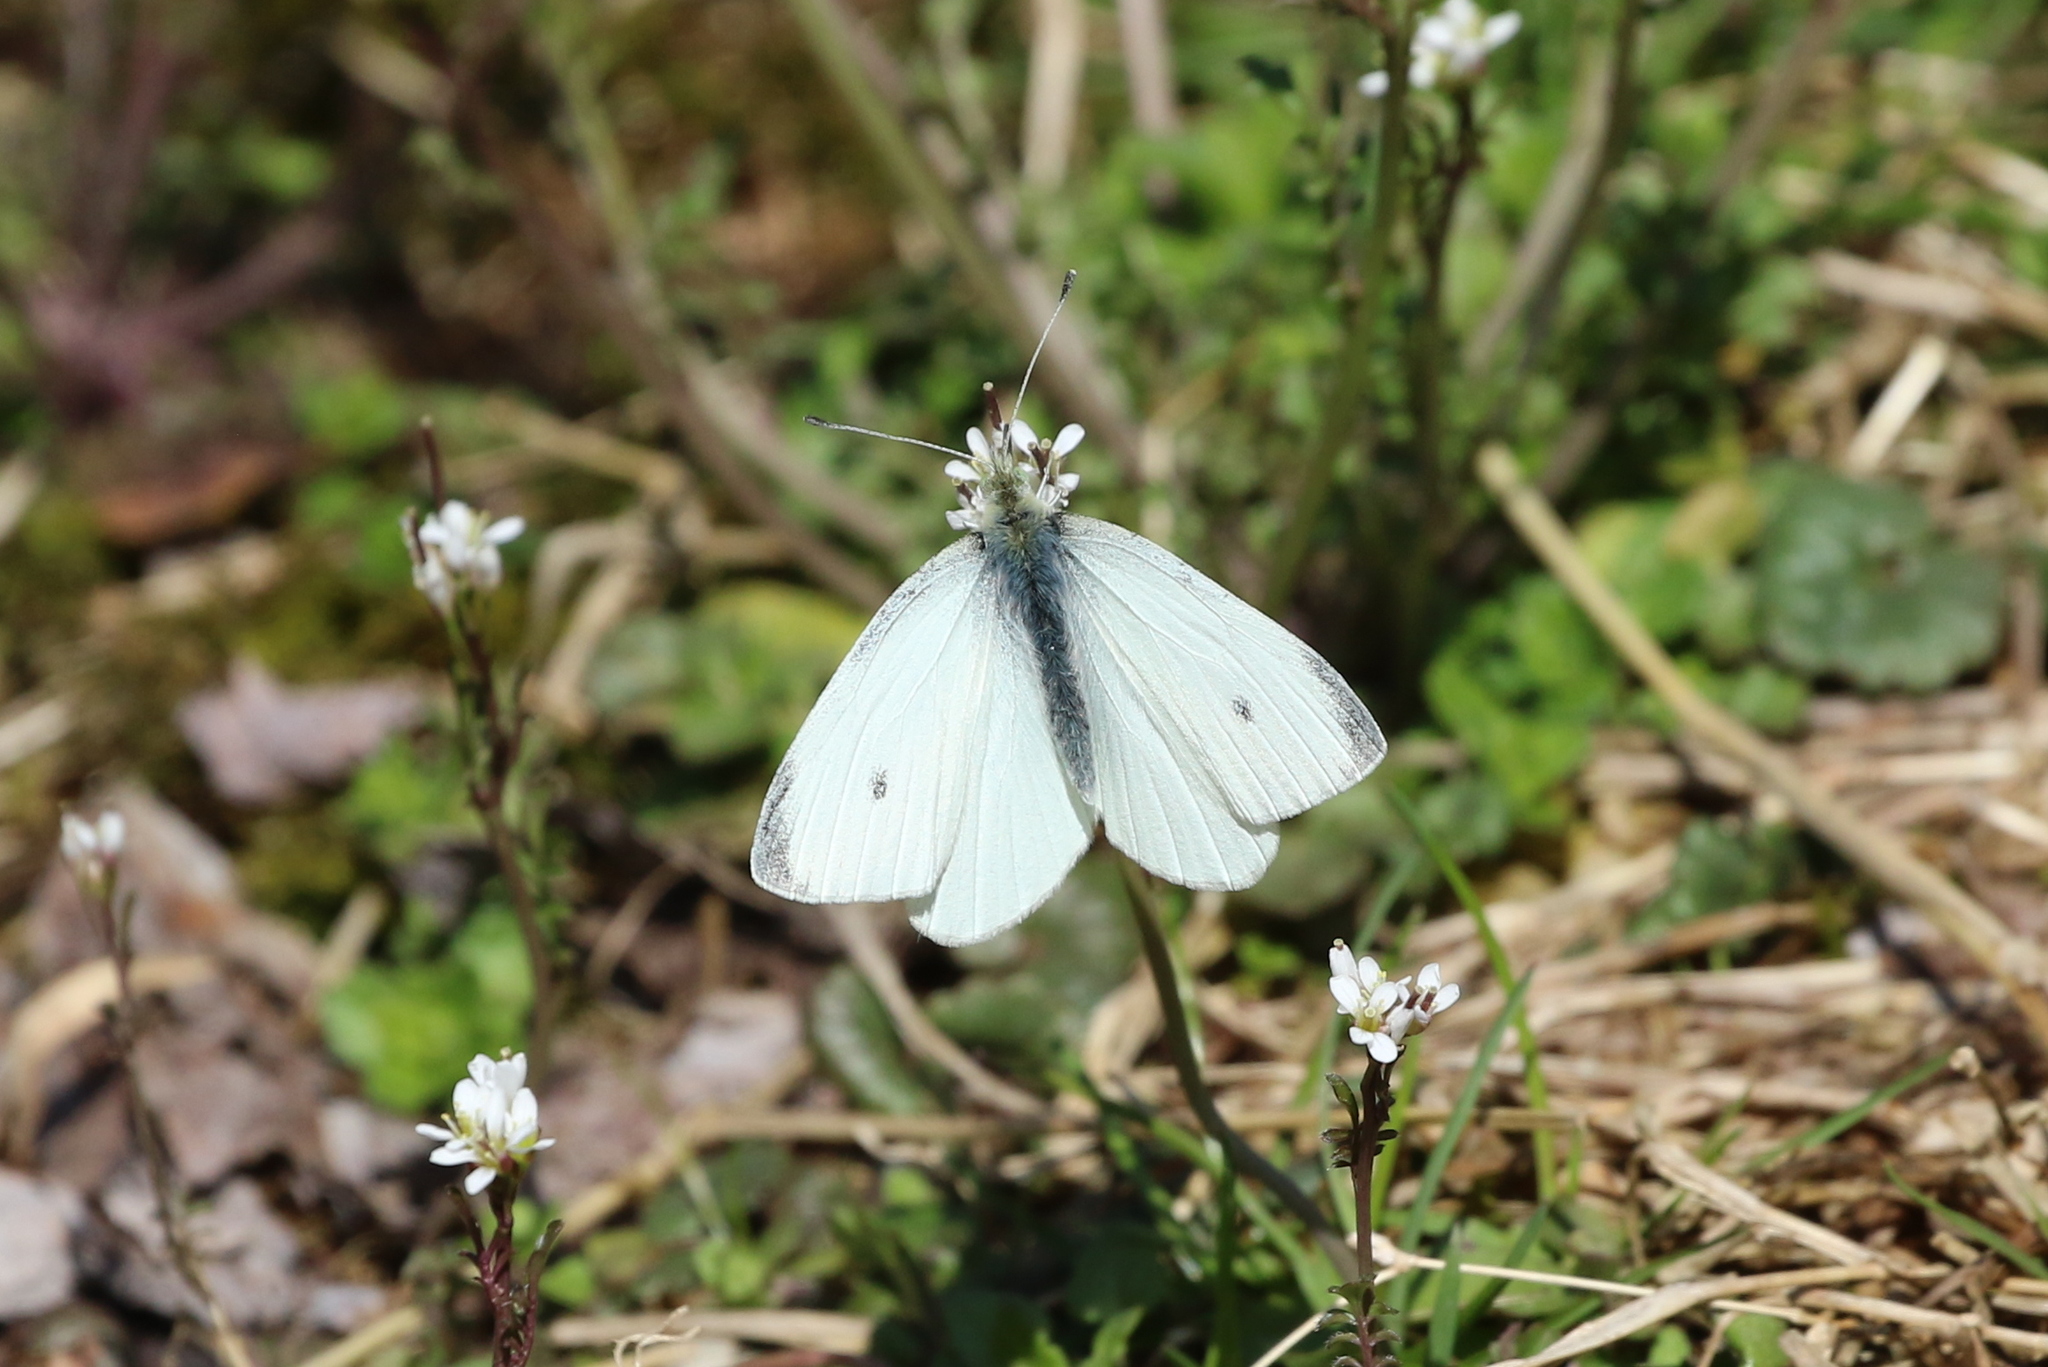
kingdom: Animalia
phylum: Arthropoda
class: Insecta
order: Lepidoptera
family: Pieridae
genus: Pieris
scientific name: Pieris rapae
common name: Small white
